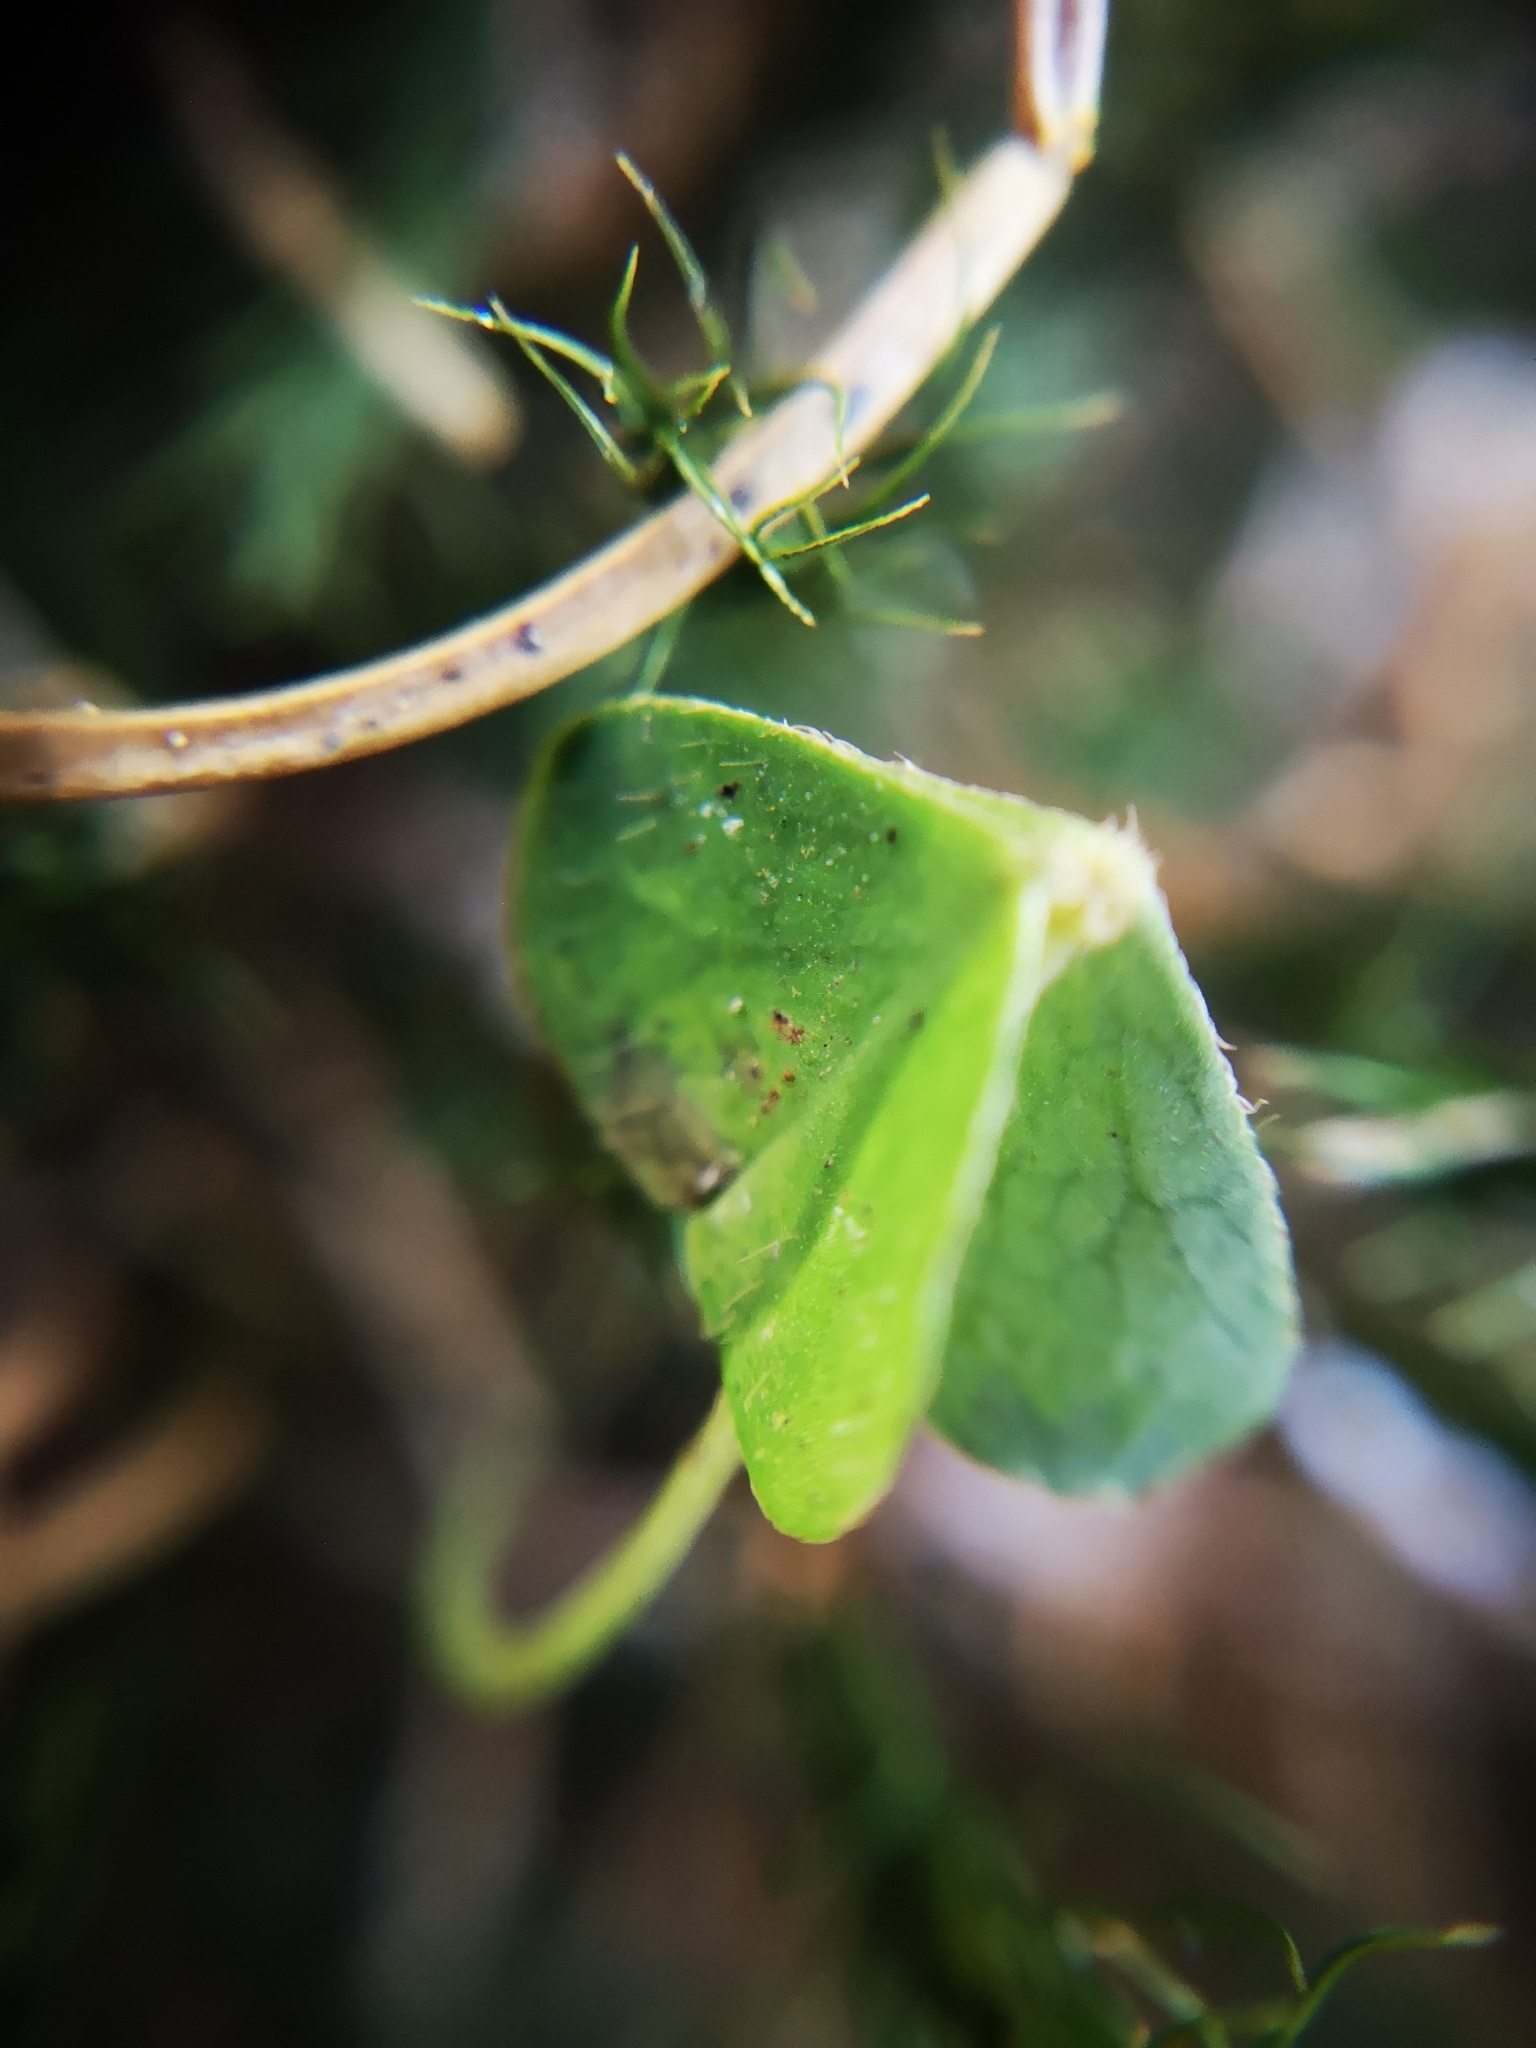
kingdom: Plantae
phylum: Tracheophyta
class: Magnoliopsida
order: Oxalidales
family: Oxalidaceae
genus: Oxalis
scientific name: Oxalis acetosella
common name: Wood-sorrel
